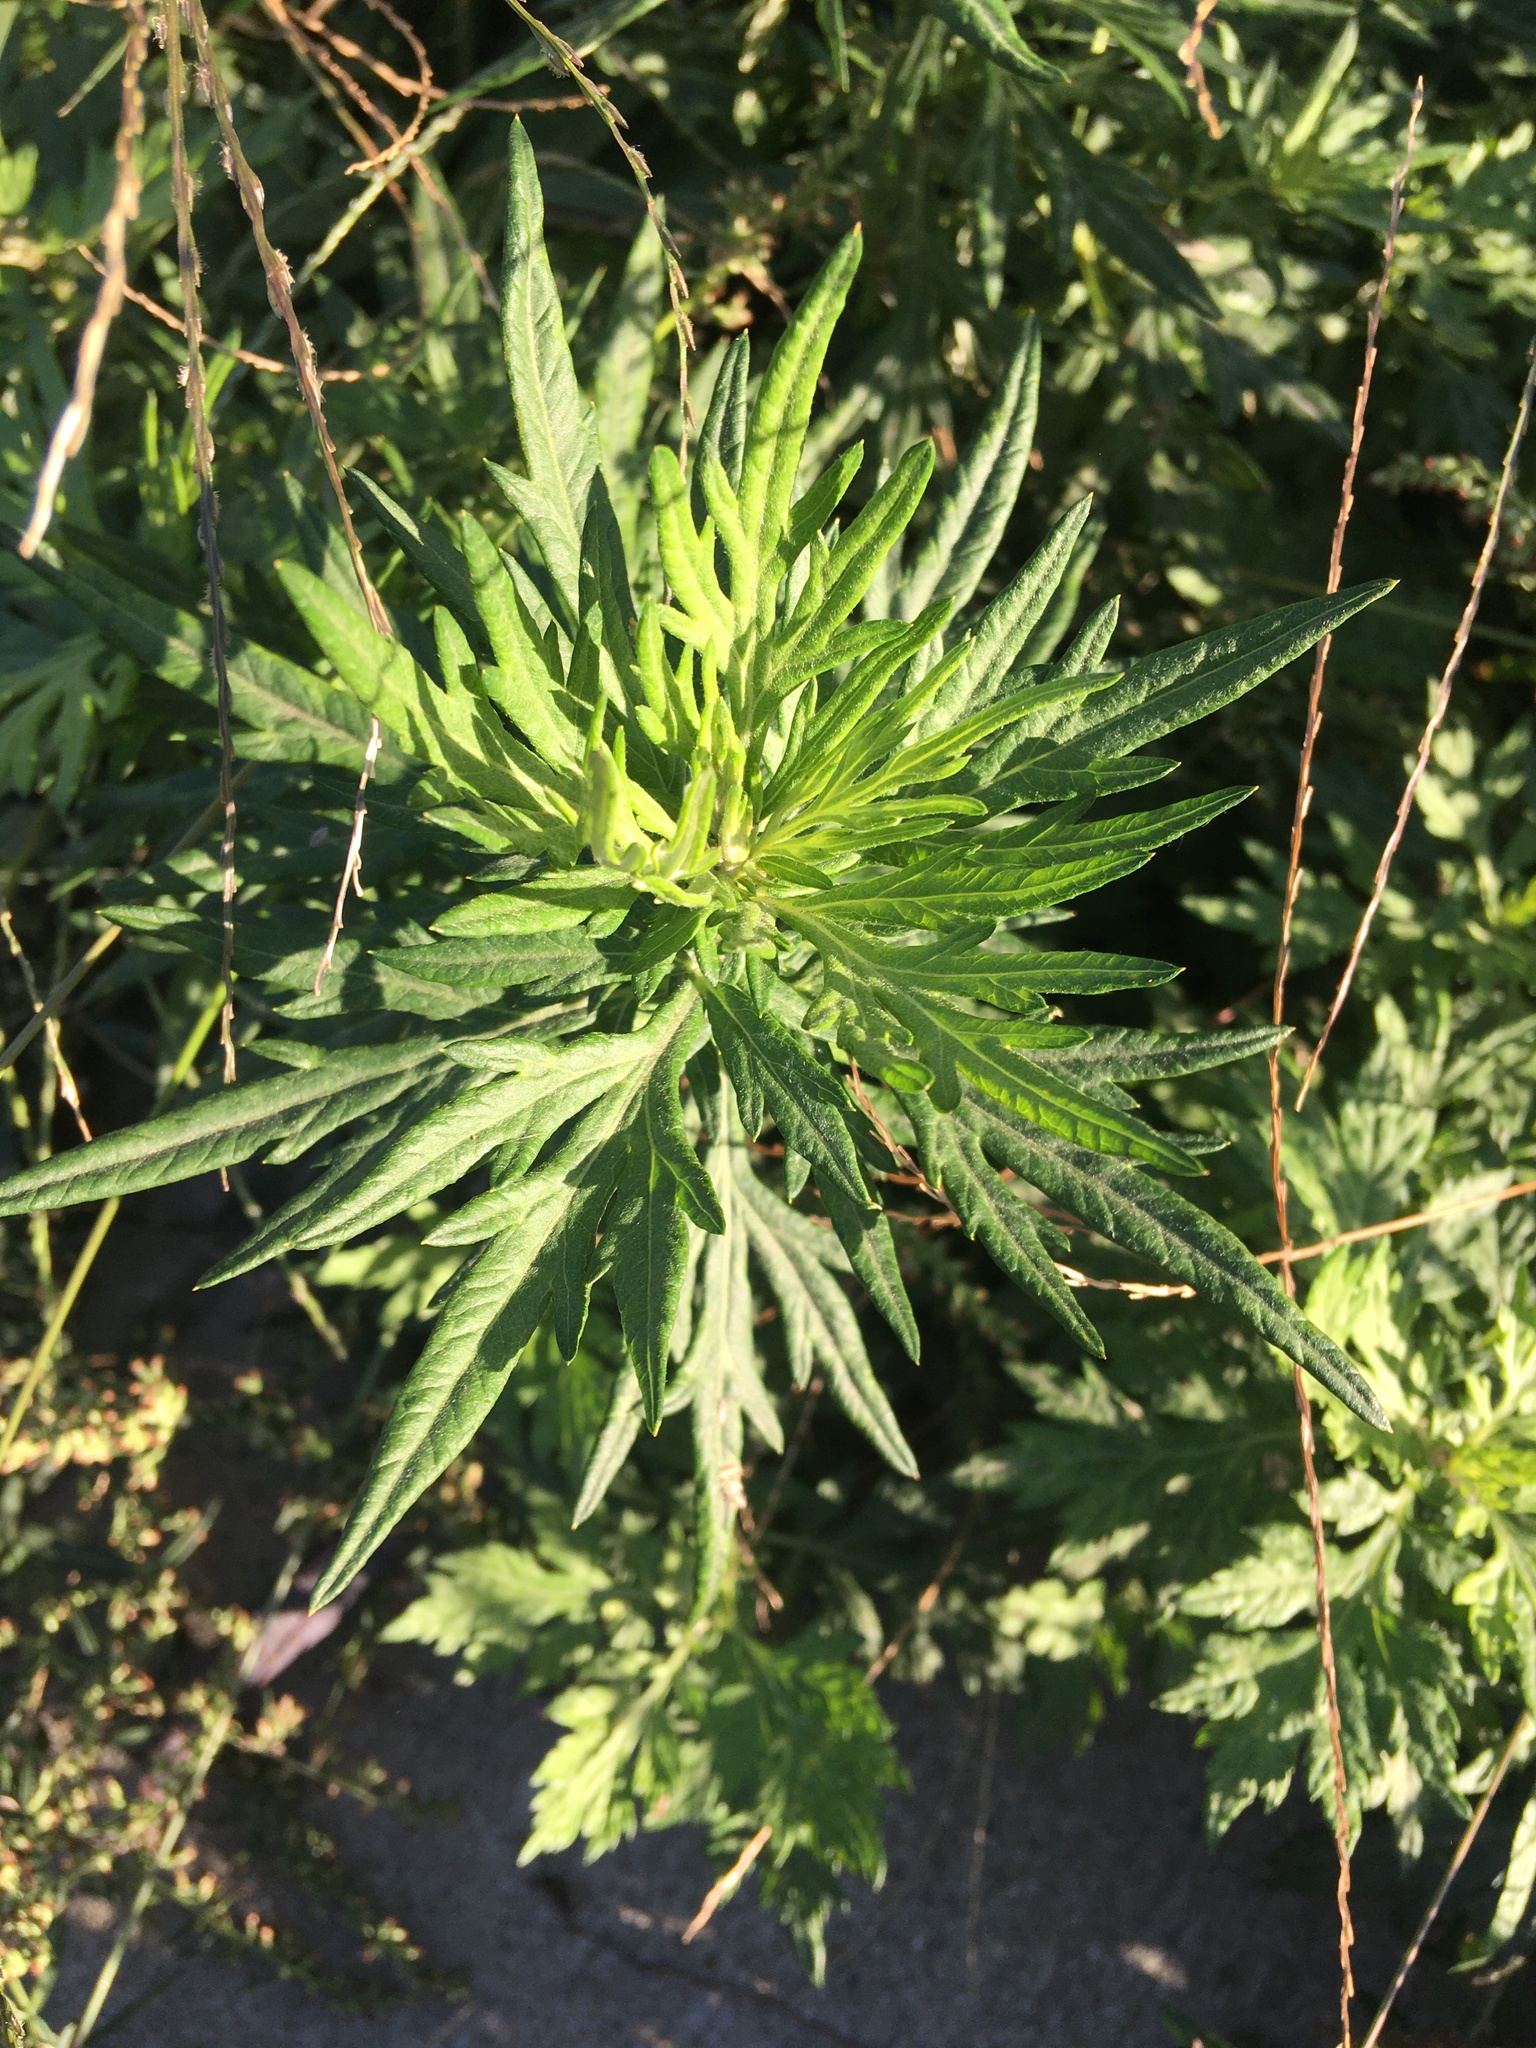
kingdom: Plantae
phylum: Tracheophyta
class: Magnoliopsida
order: Asterales
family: Asteraceae
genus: Artemisia
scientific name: Artemisia vulgaris
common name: Mugwort
